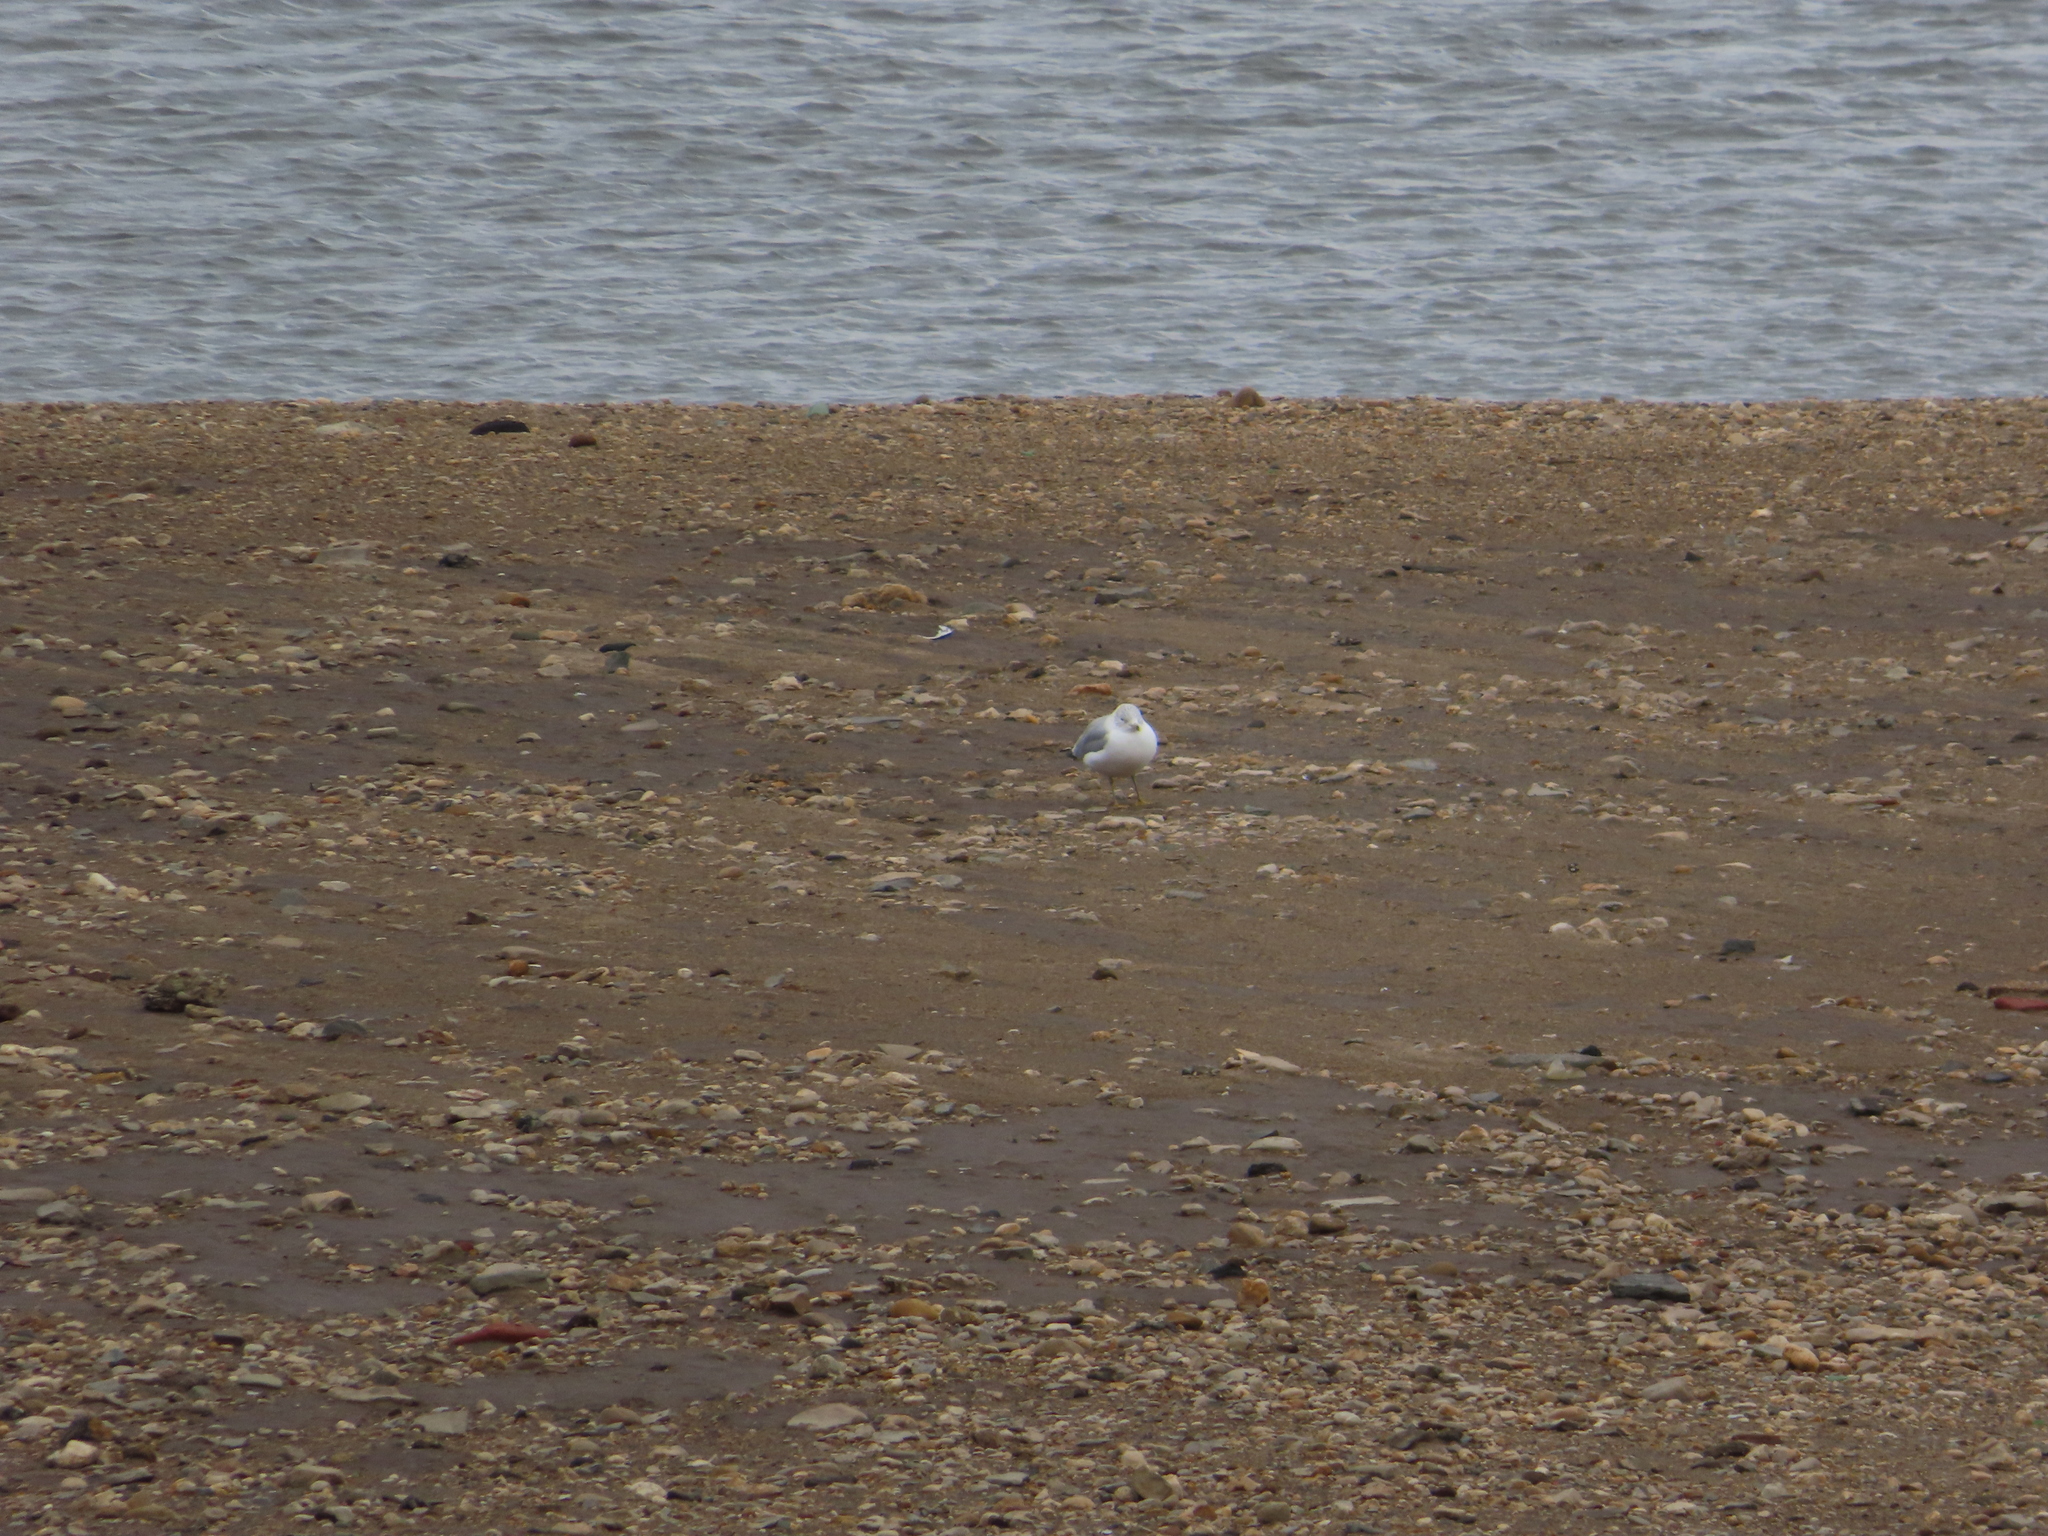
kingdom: Animalia
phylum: Chordata
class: Aves
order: Charadriiformes
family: Laridae
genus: Larus
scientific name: Larus delawarensis
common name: Ring-billed gull
